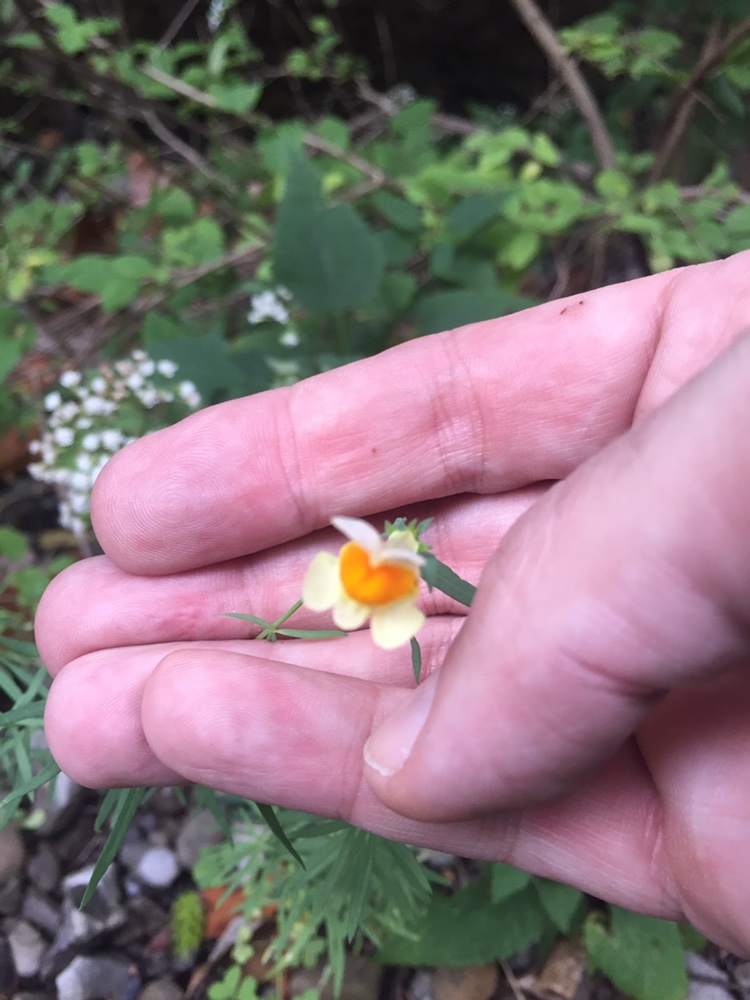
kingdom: Plantae
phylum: Tracheophyta
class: Magnoliopsida
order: Lamiales
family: Plantaginaceae
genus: Linaria
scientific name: Linaria vulgaris
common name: Butter and eggs
